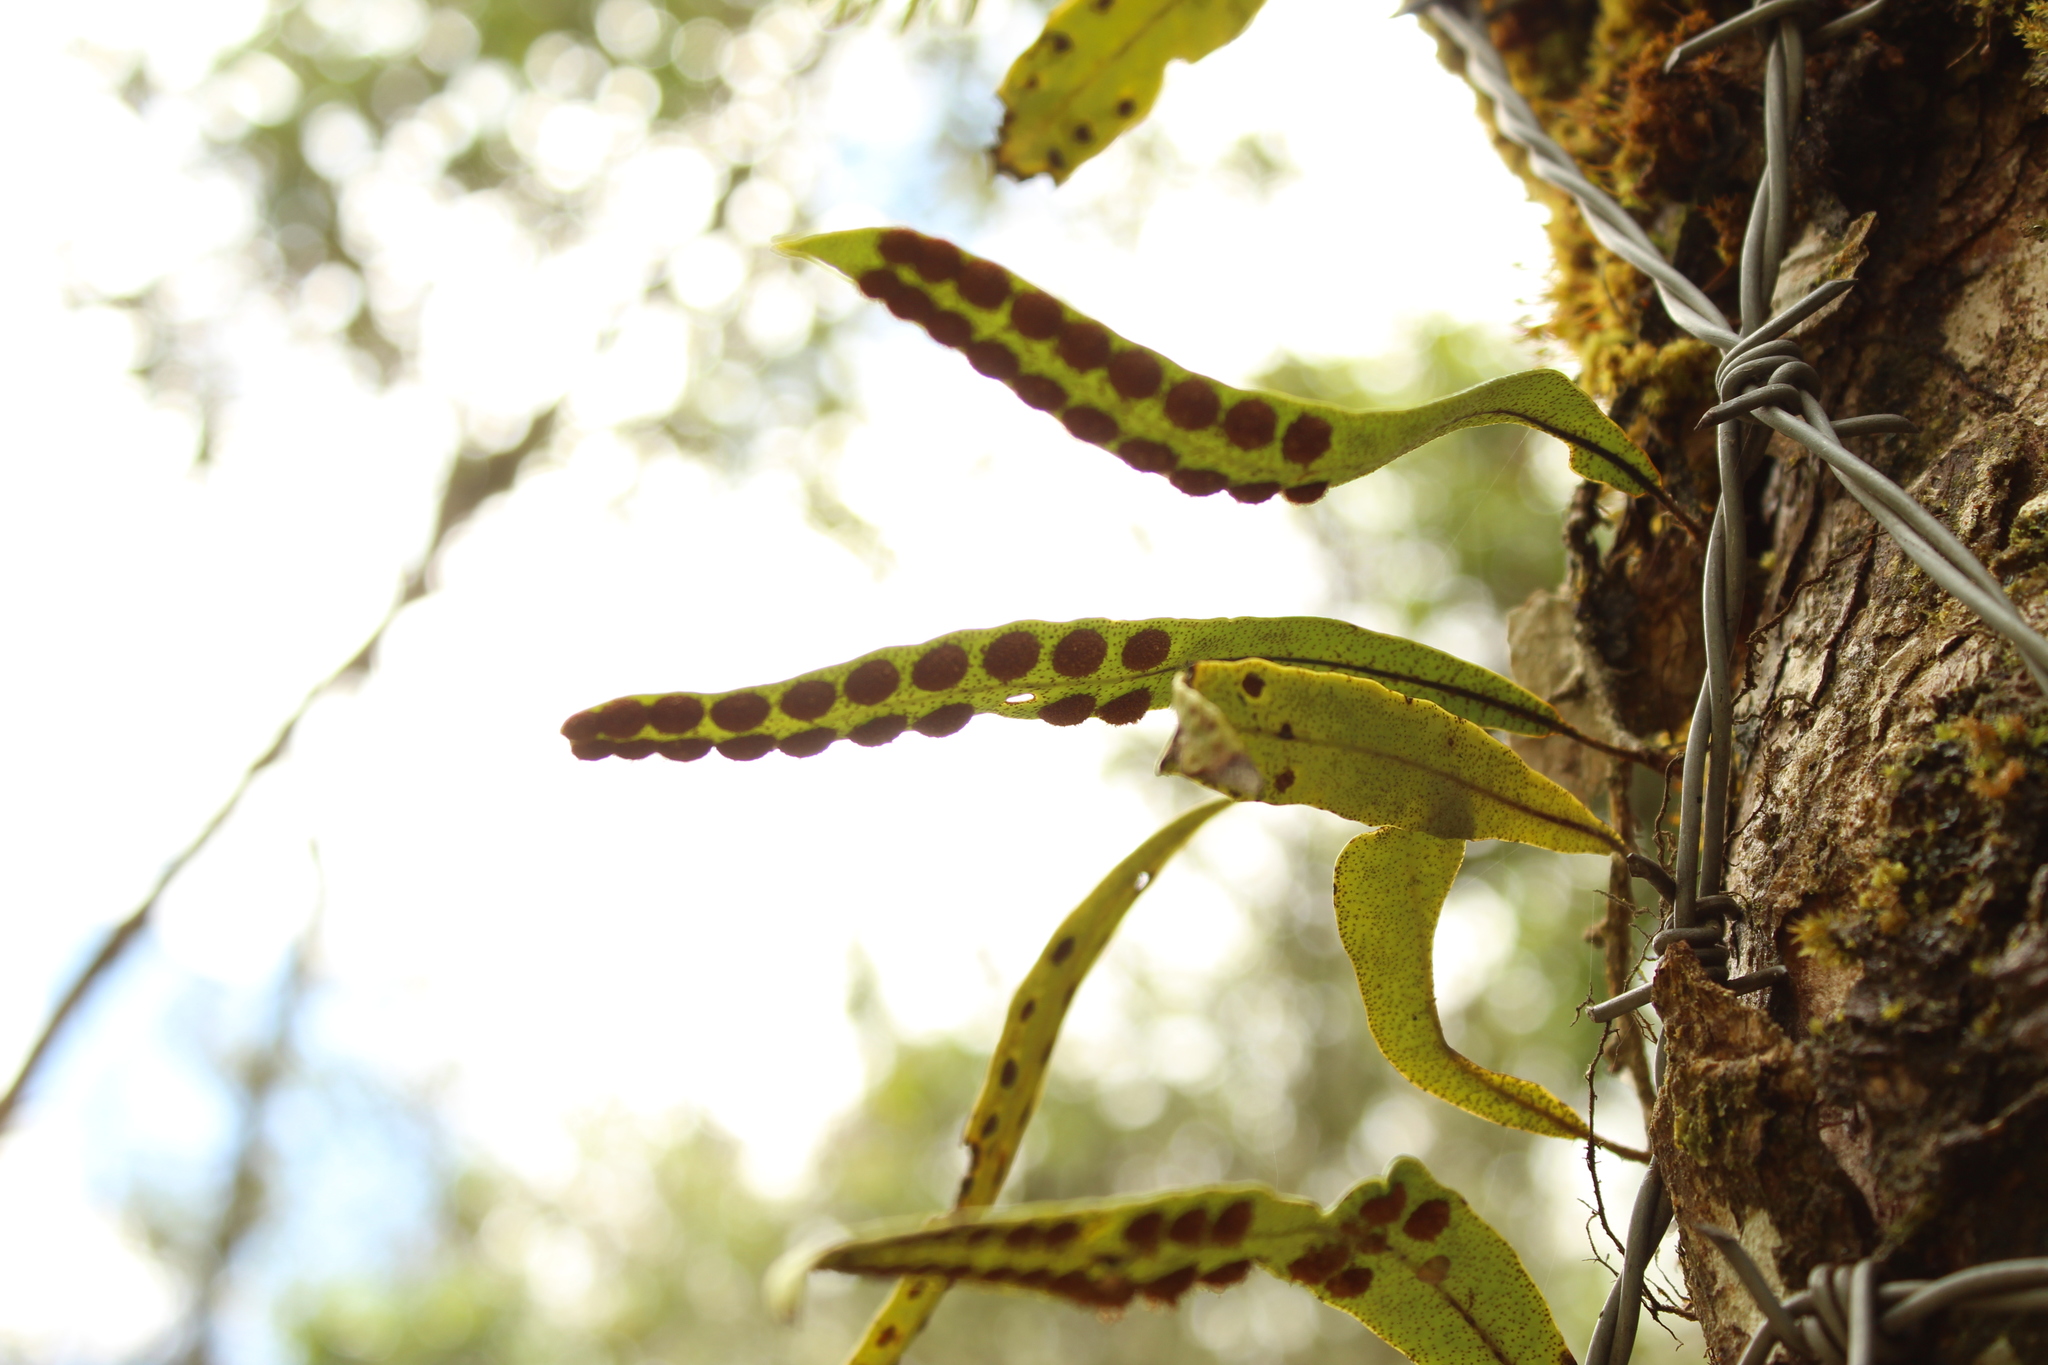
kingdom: Plantae
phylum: Tracheophyta
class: Polypodiopsida
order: Polypodiales
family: Polypodiaceae
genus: Pleopeltis
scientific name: Pleopeltis macrocarpa
